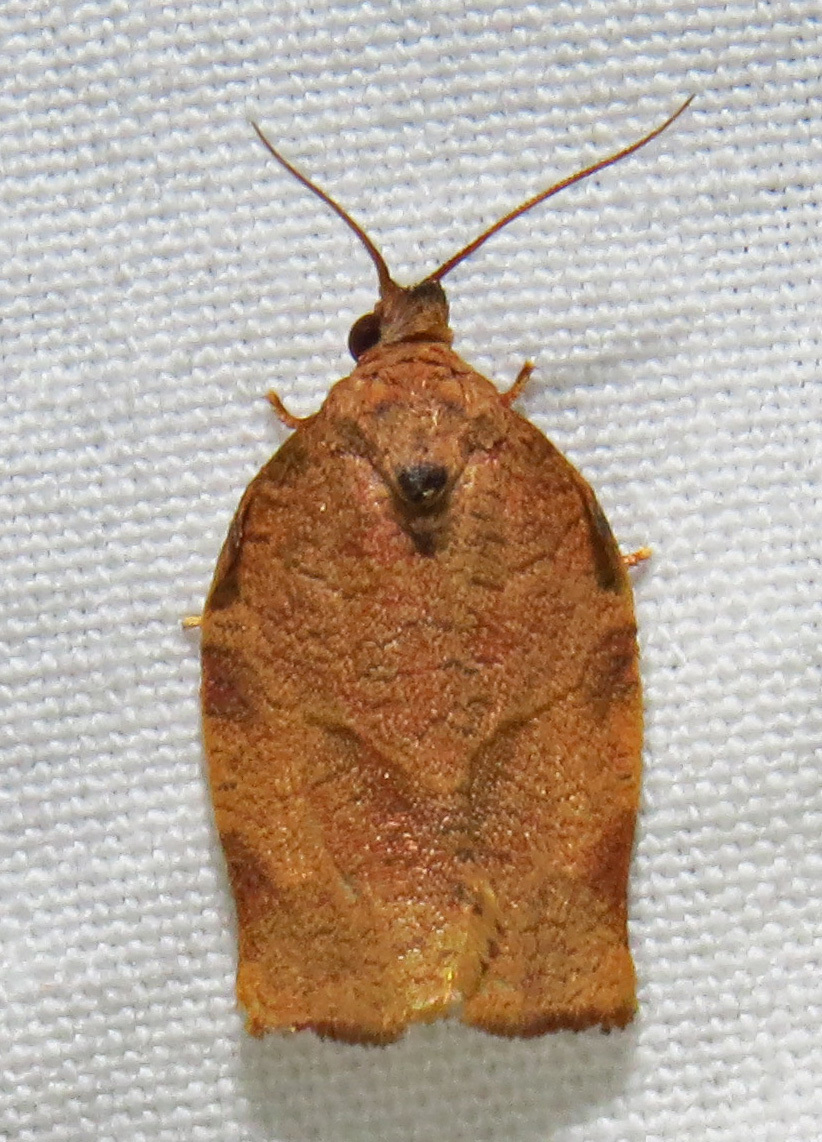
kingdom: Animalia
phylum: Arthropoda
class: Insecta
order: Lepidoptera
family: Tortricidae
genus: Choristoneura
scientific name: Choristoneura rosaceana
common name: Oblique-banded leafroller moth
